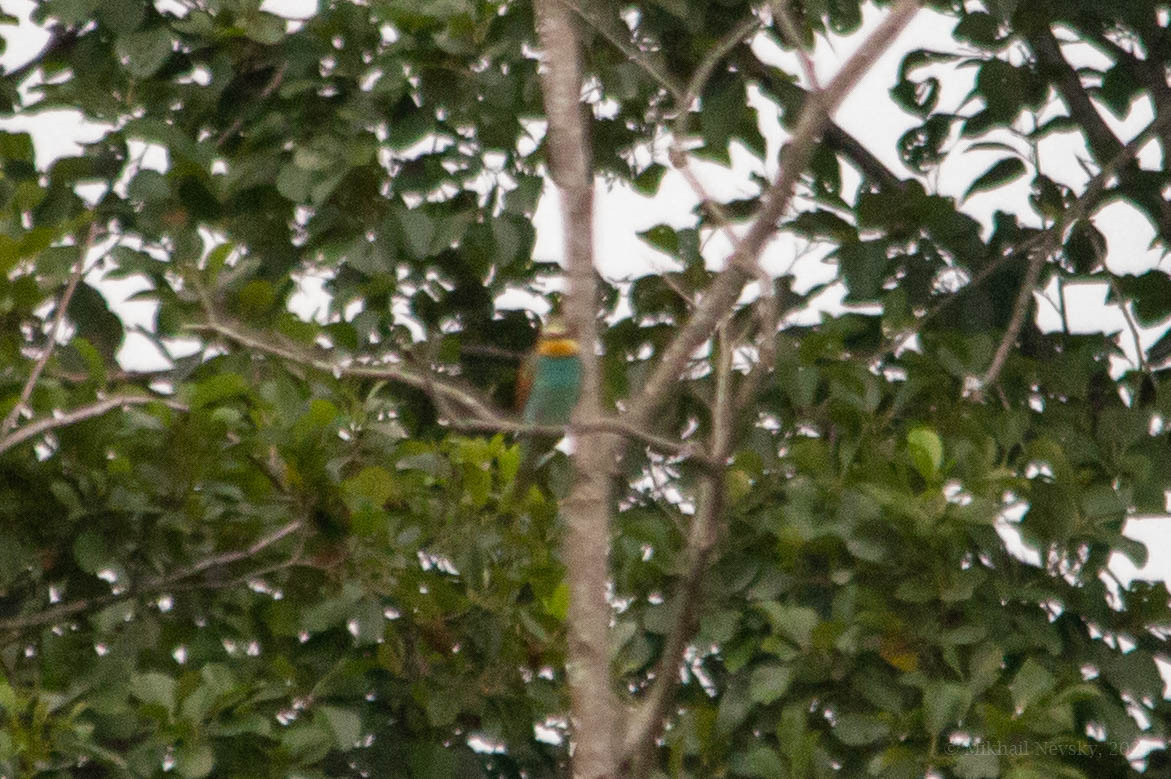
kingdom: Animalia
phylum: Chordata
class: Aves
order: Coraciiformes
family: Meropidae
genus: Merops
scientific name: Merops apiaster
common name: European bee-eater
